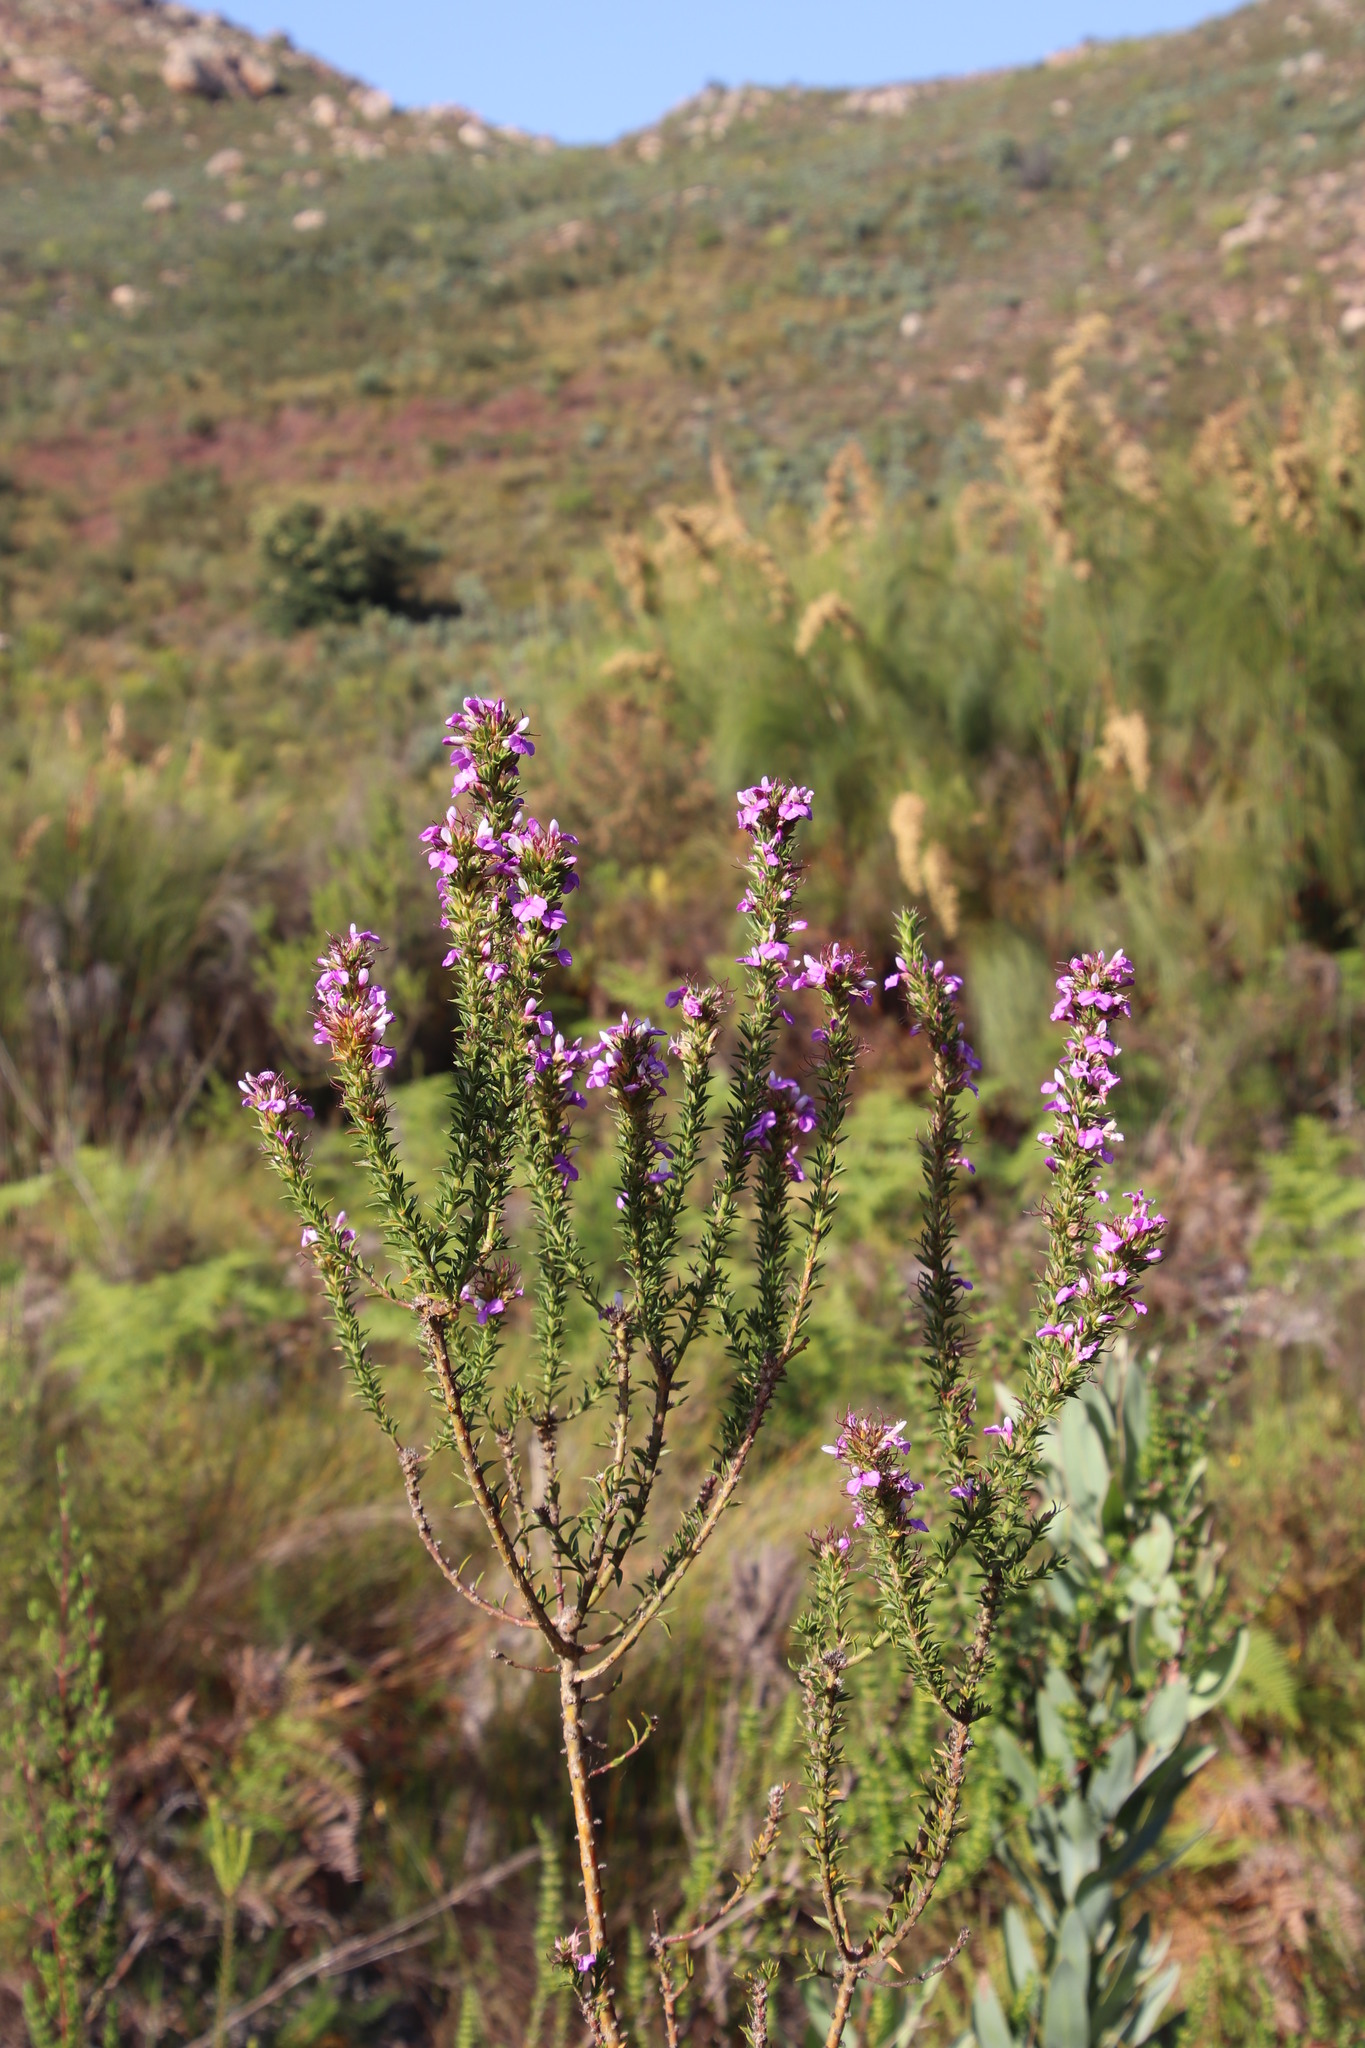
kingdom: Plantae
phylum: Tracheophyta
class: Magnoliopsida
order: Fabales
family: Polygalaceae
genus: Muraltia
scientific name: Muraltia heisteria
